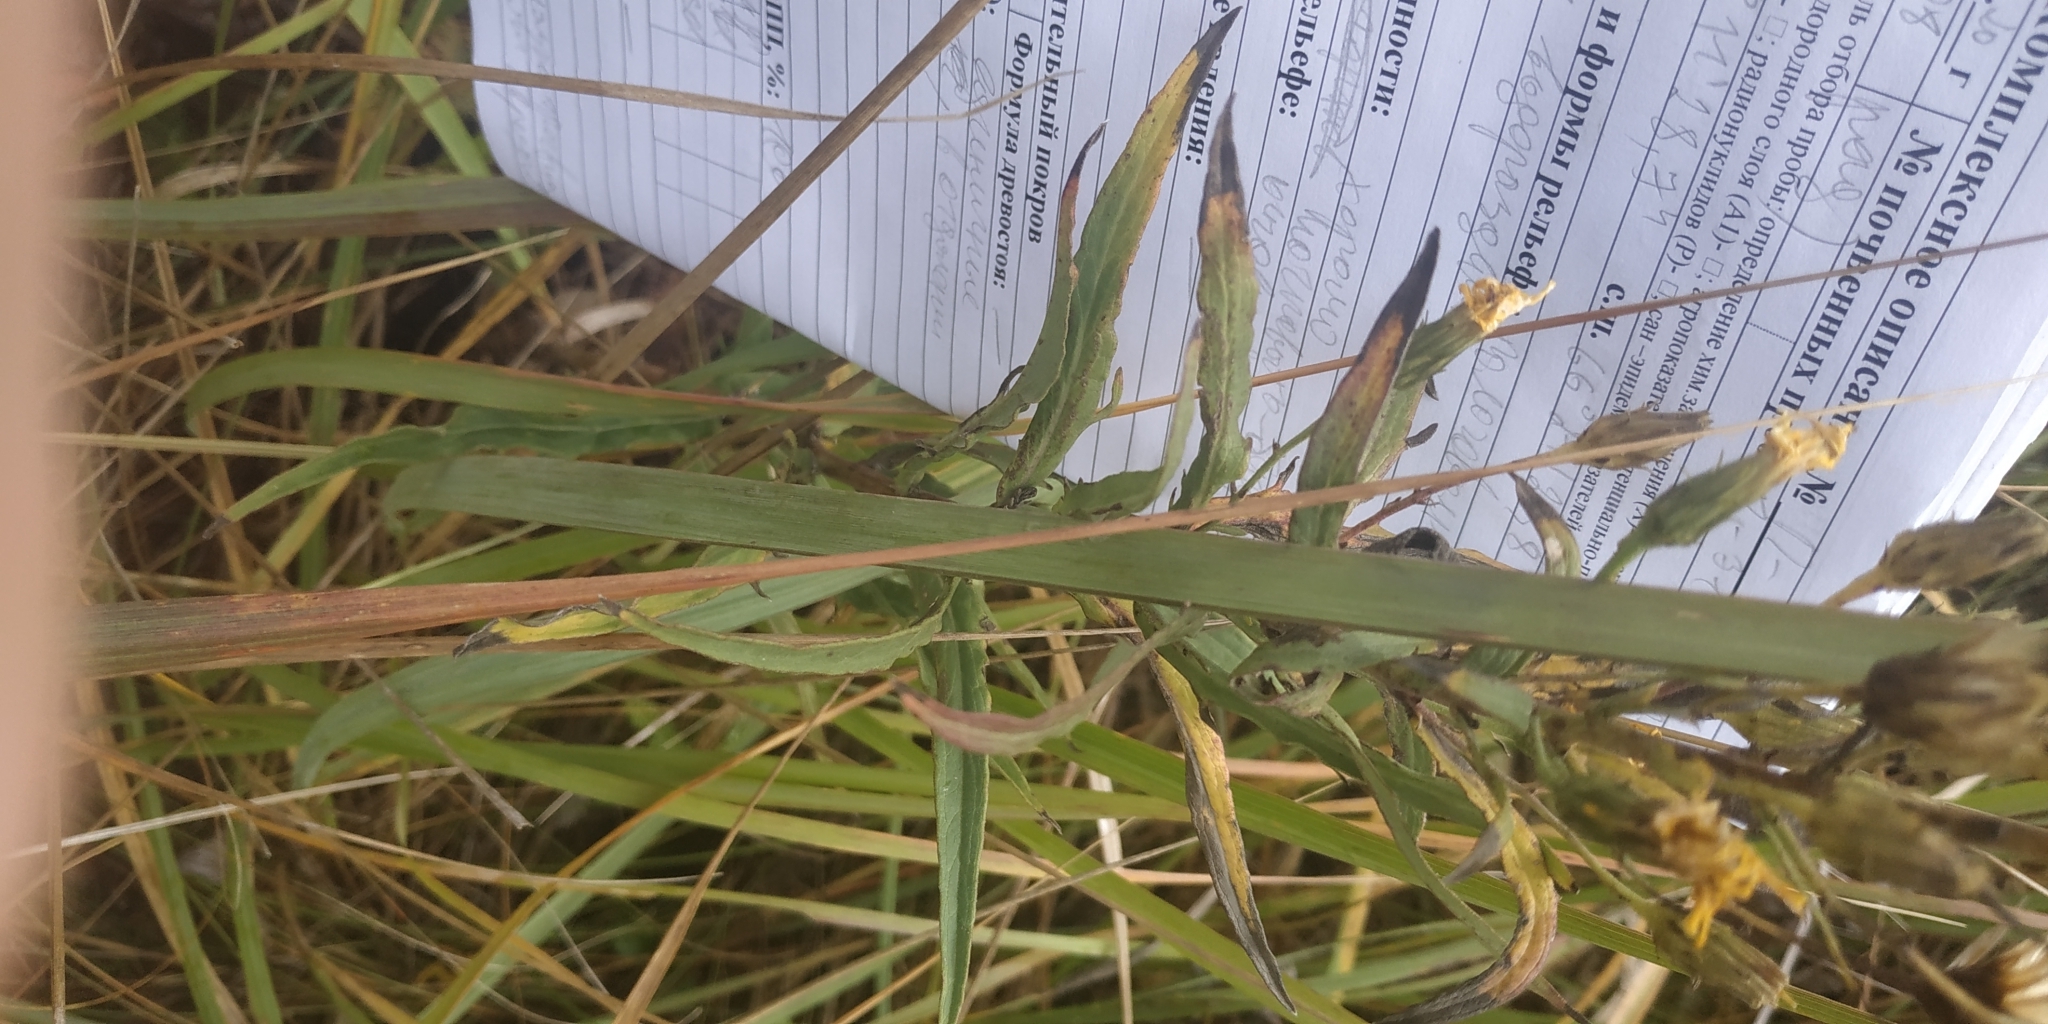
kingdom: Plantae
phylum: Tracheophyta
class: Magnoliopsida
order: Asterales
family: Asteraceae
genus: Lactuca
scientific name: Lactuca tatarica
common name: Blue lettuce
